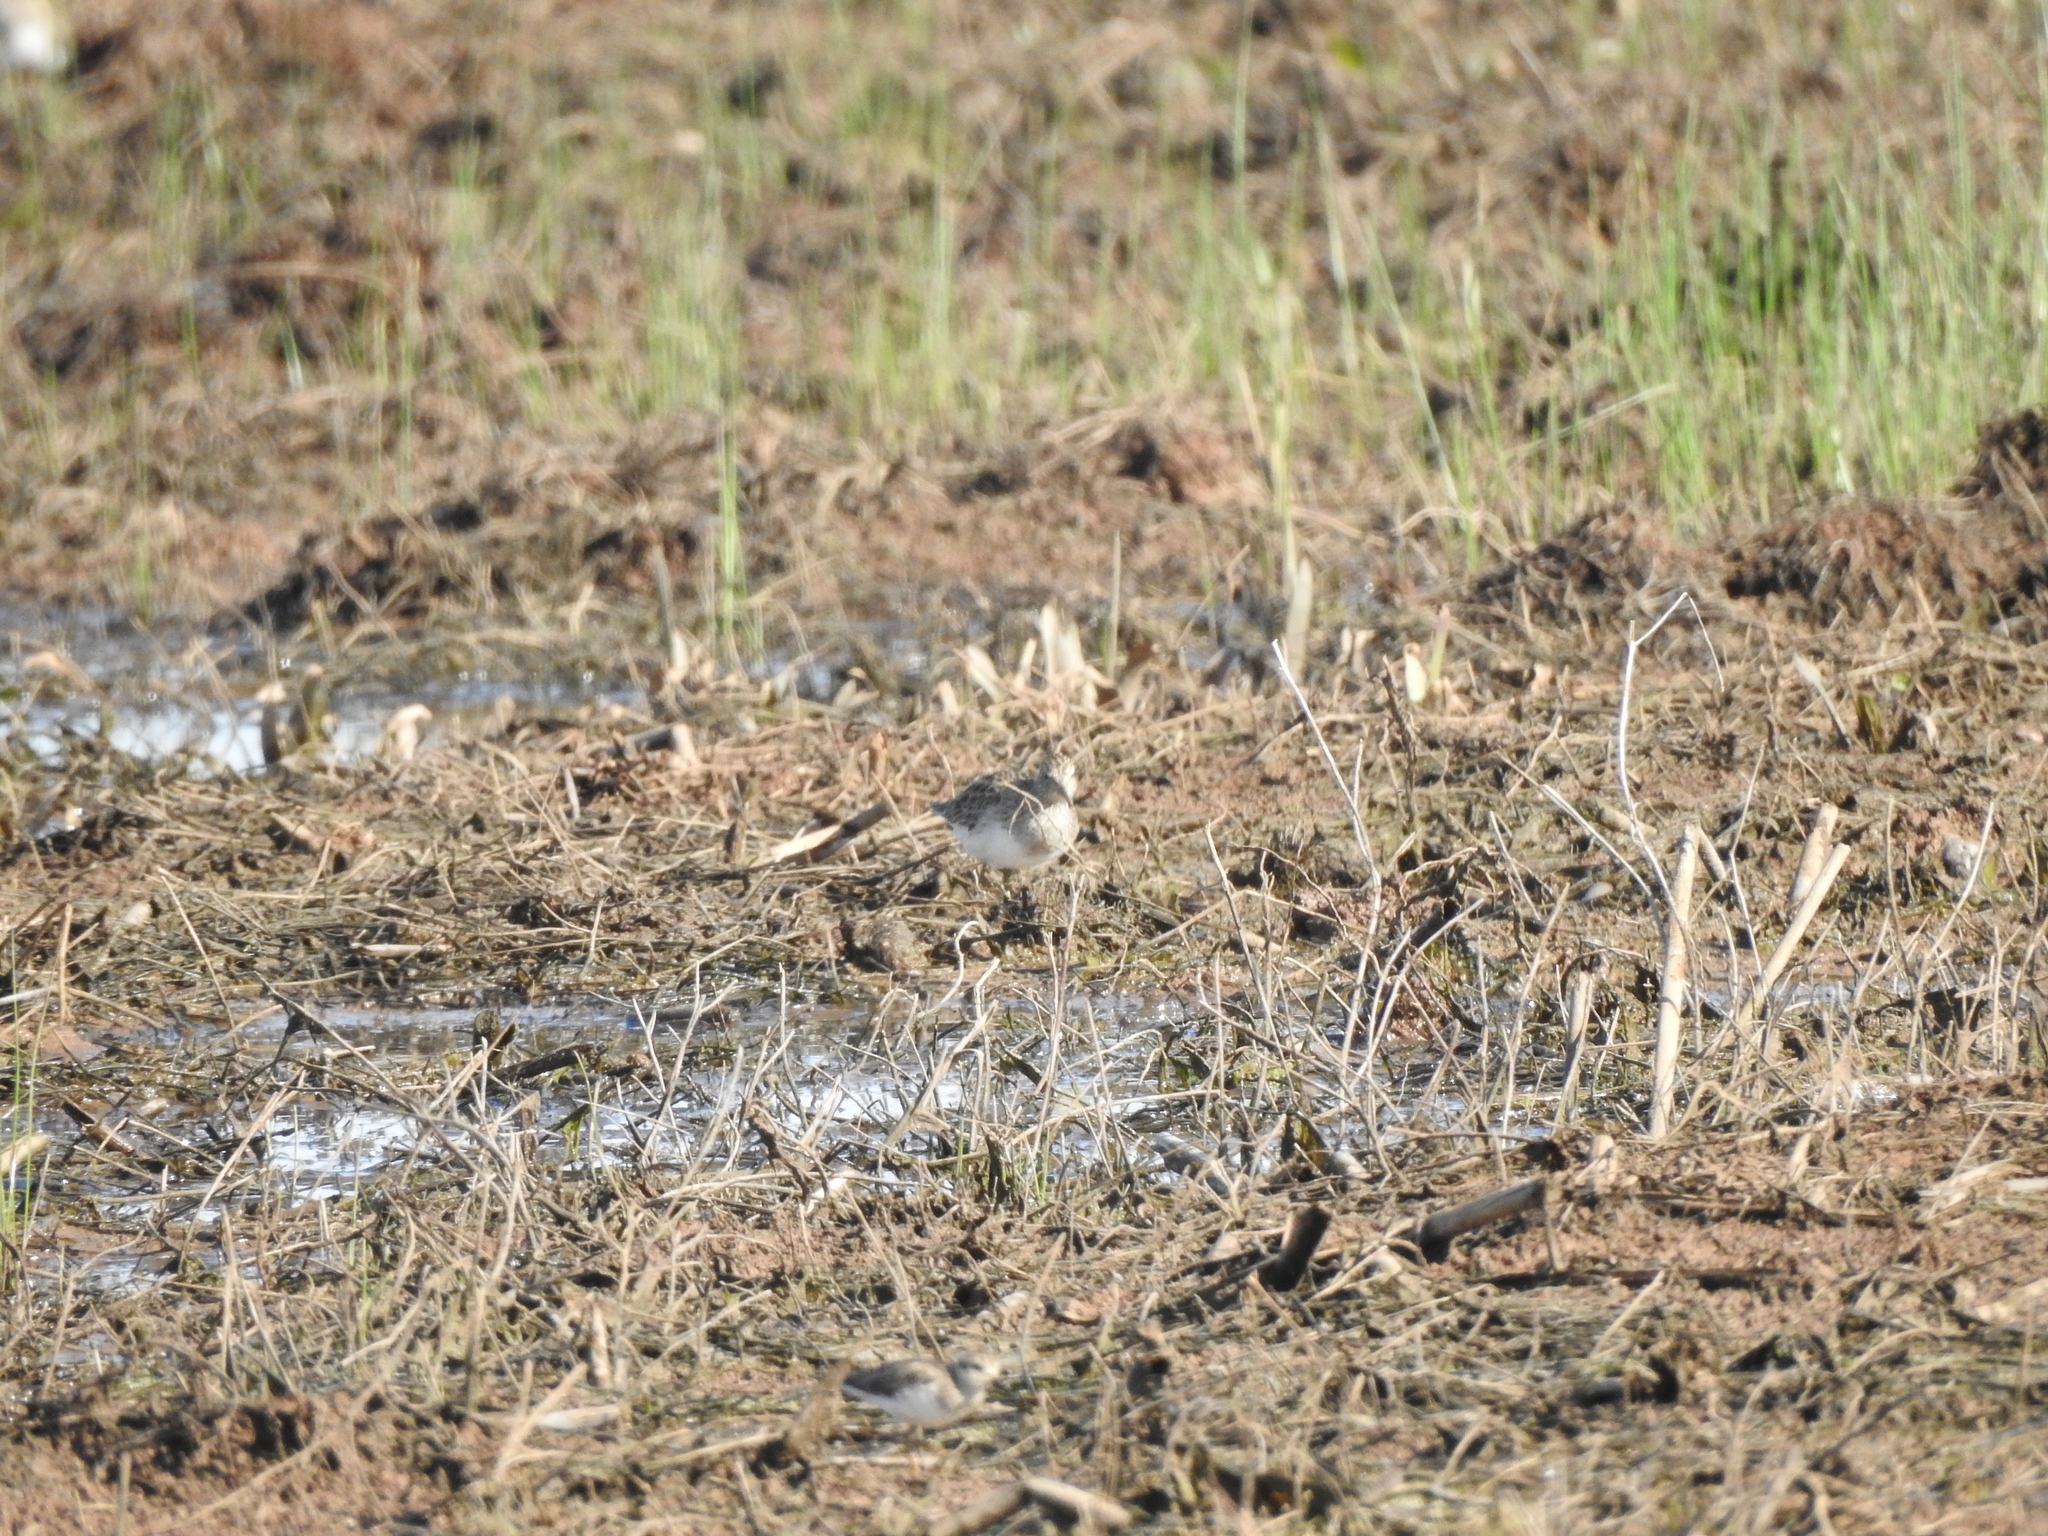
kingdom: Animalia
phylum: Chordata
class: Aves
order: Charadriiformes
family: Scolopacidae
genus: Calidris
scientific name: Calidris melanotos
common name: Pectoral sandpiper
